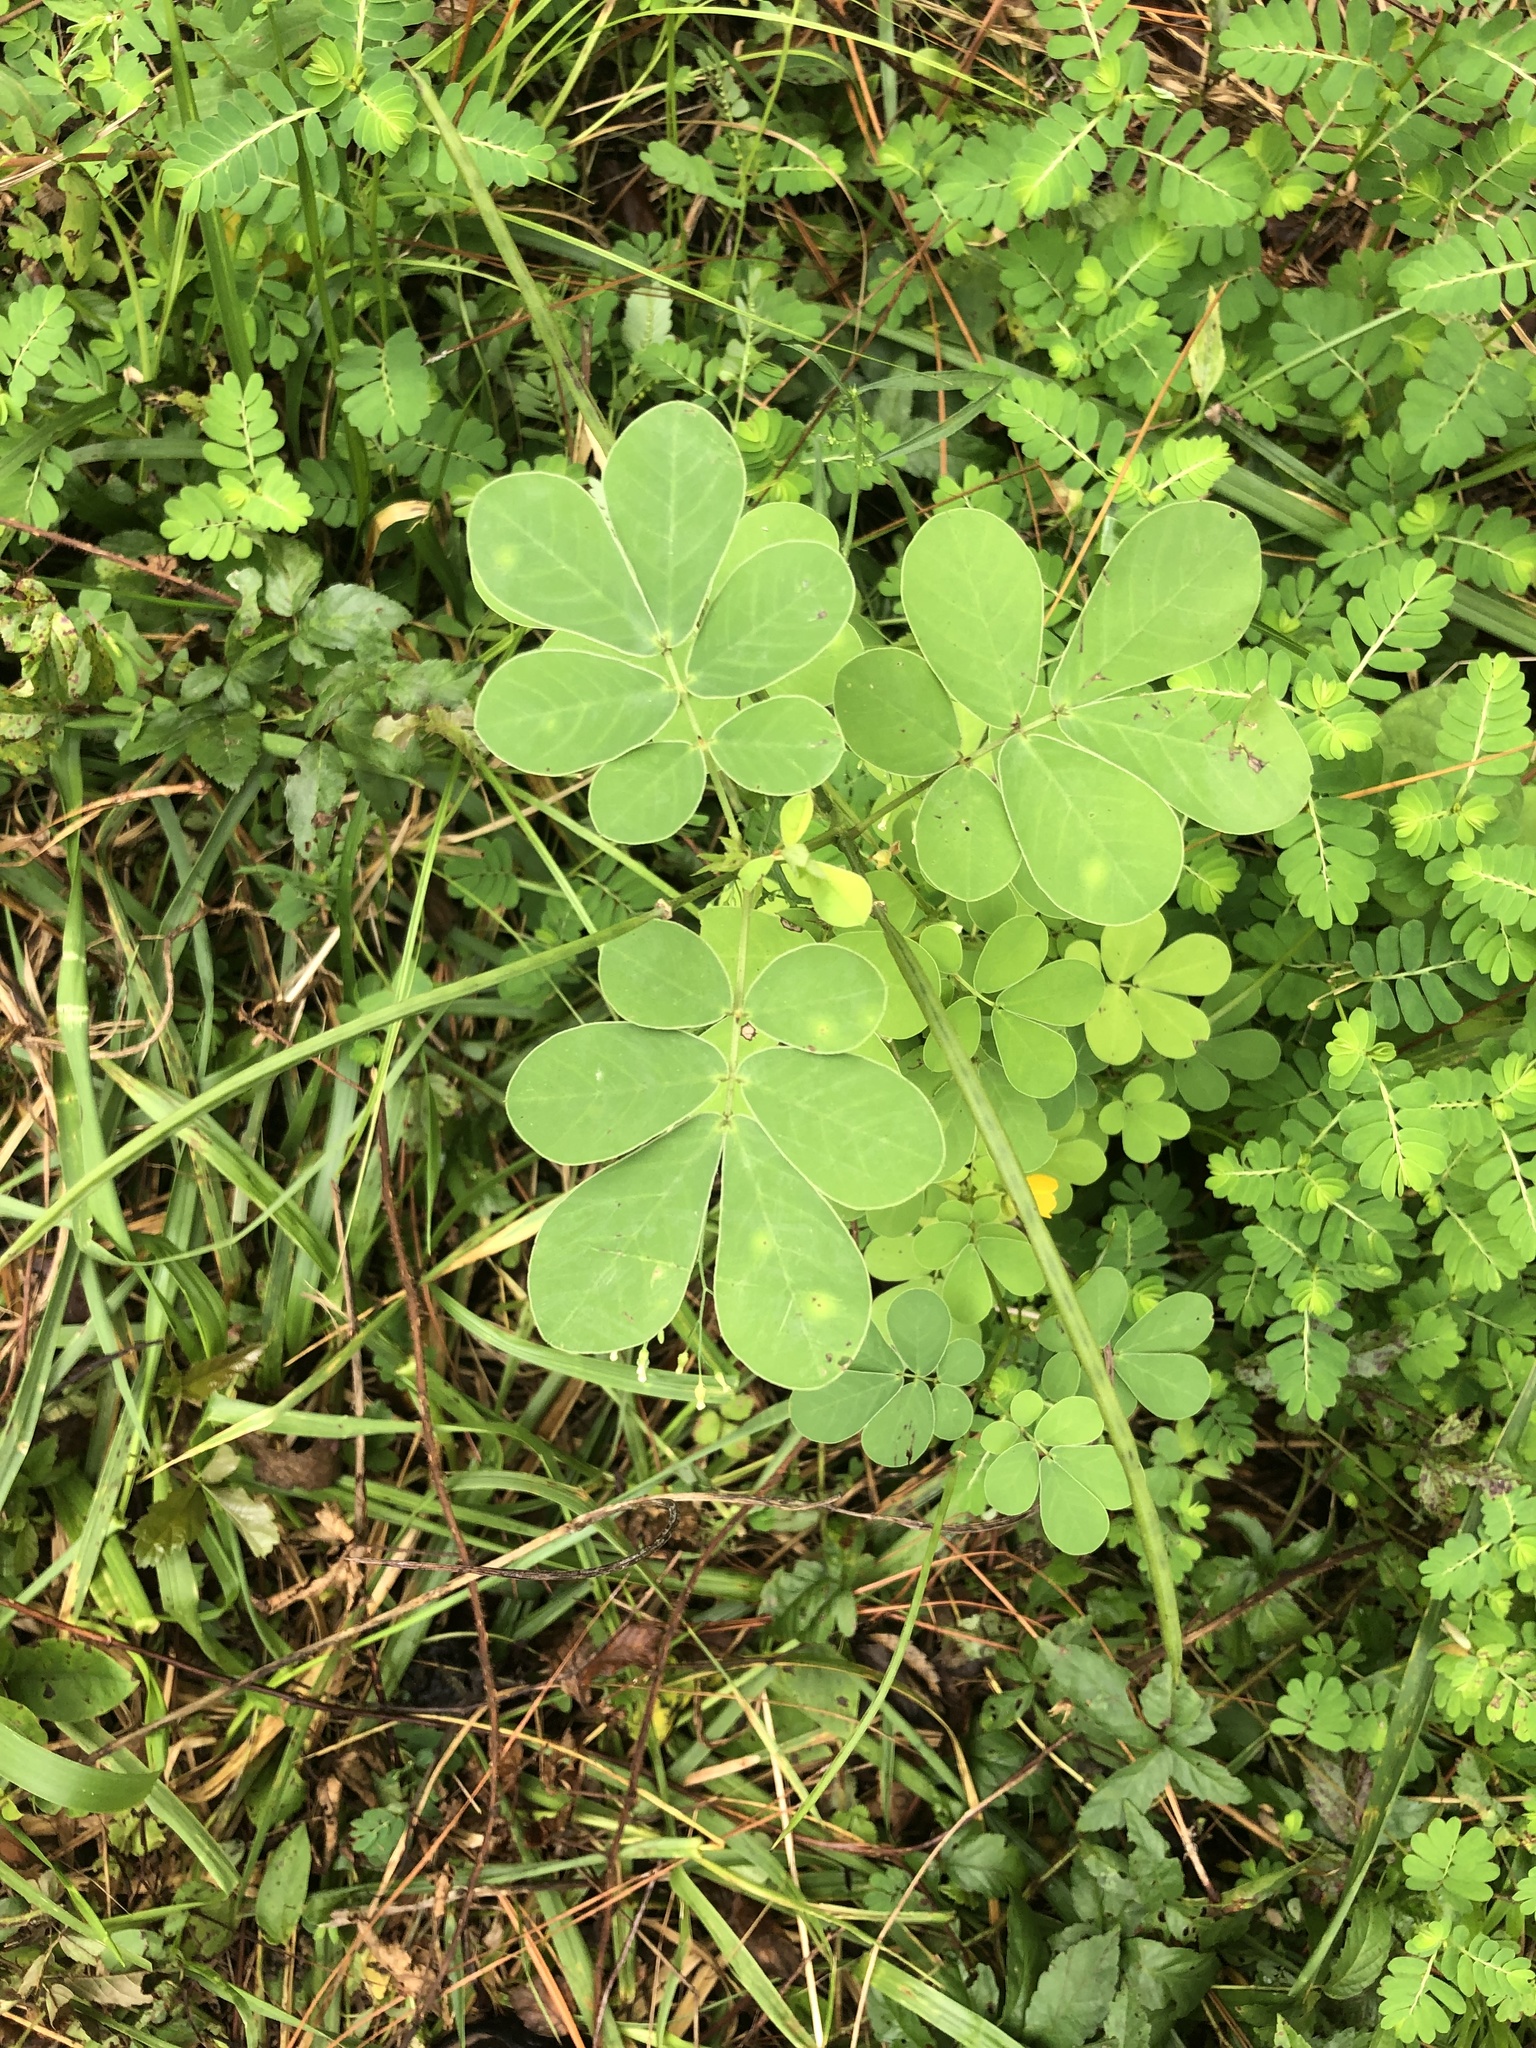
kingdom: Plantae
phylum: Tracheophyta
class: Magnoliopsida
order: Fabales
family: Fabaceae
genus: Senna
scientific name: Senna obtusifolia
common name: Java-bean
